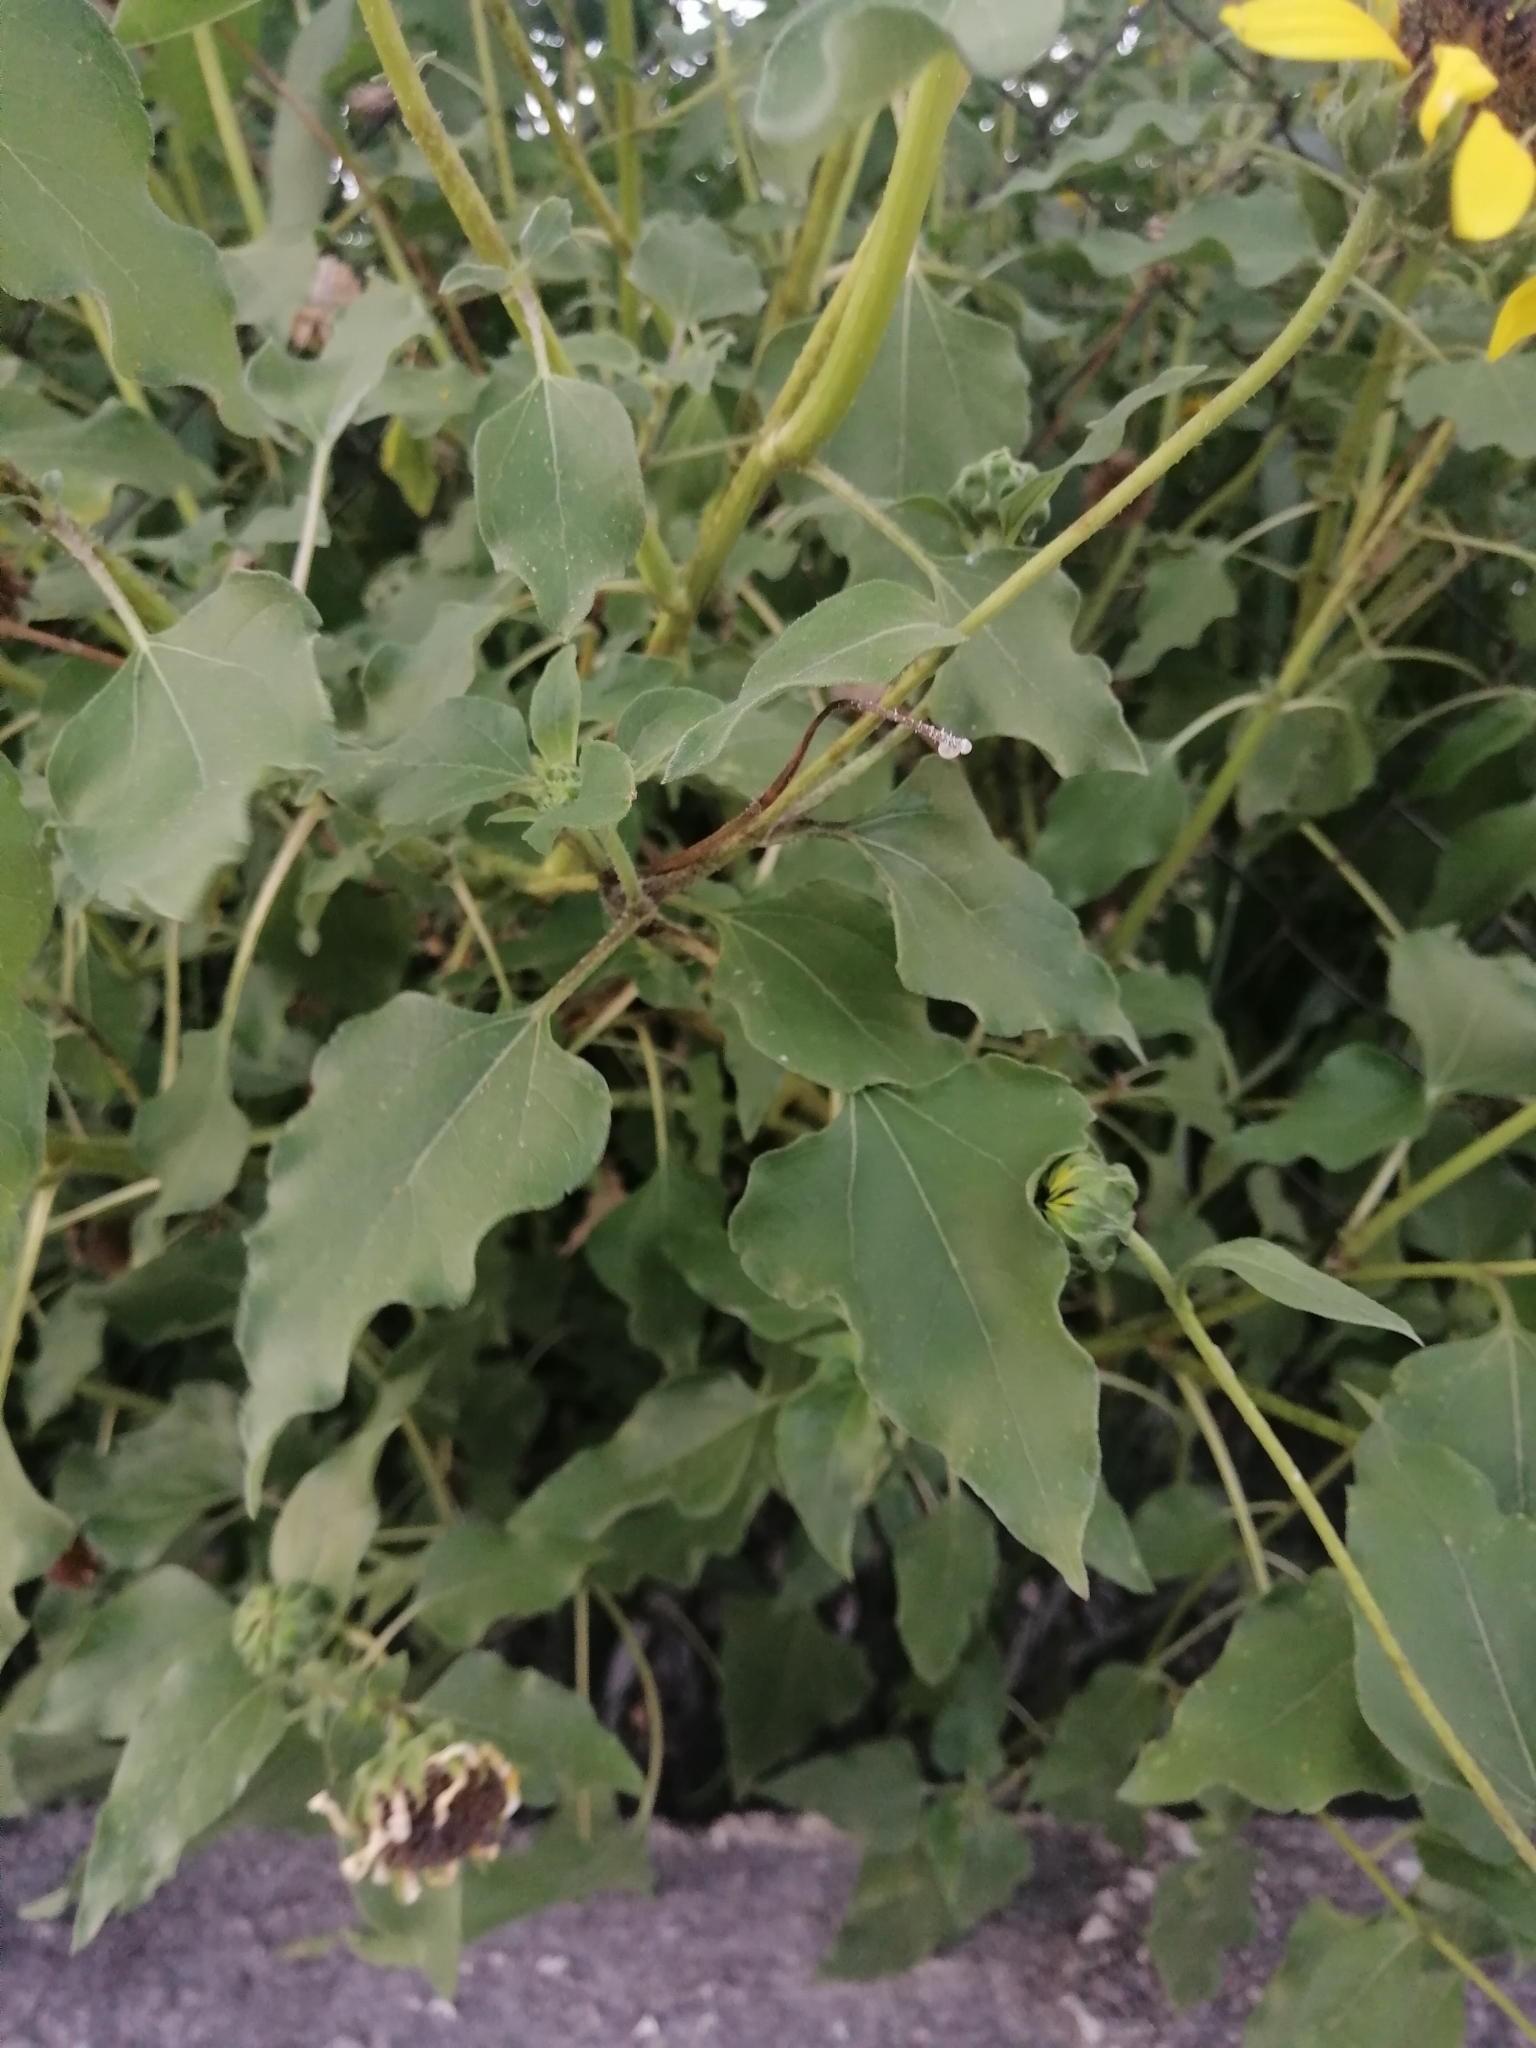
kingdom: Plantae
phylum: Tracheophyta
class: Magnoliopsida
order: Asterales
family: Asteraceae
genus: Helianthus
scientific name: Helianthus annuus
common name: Sunflower
